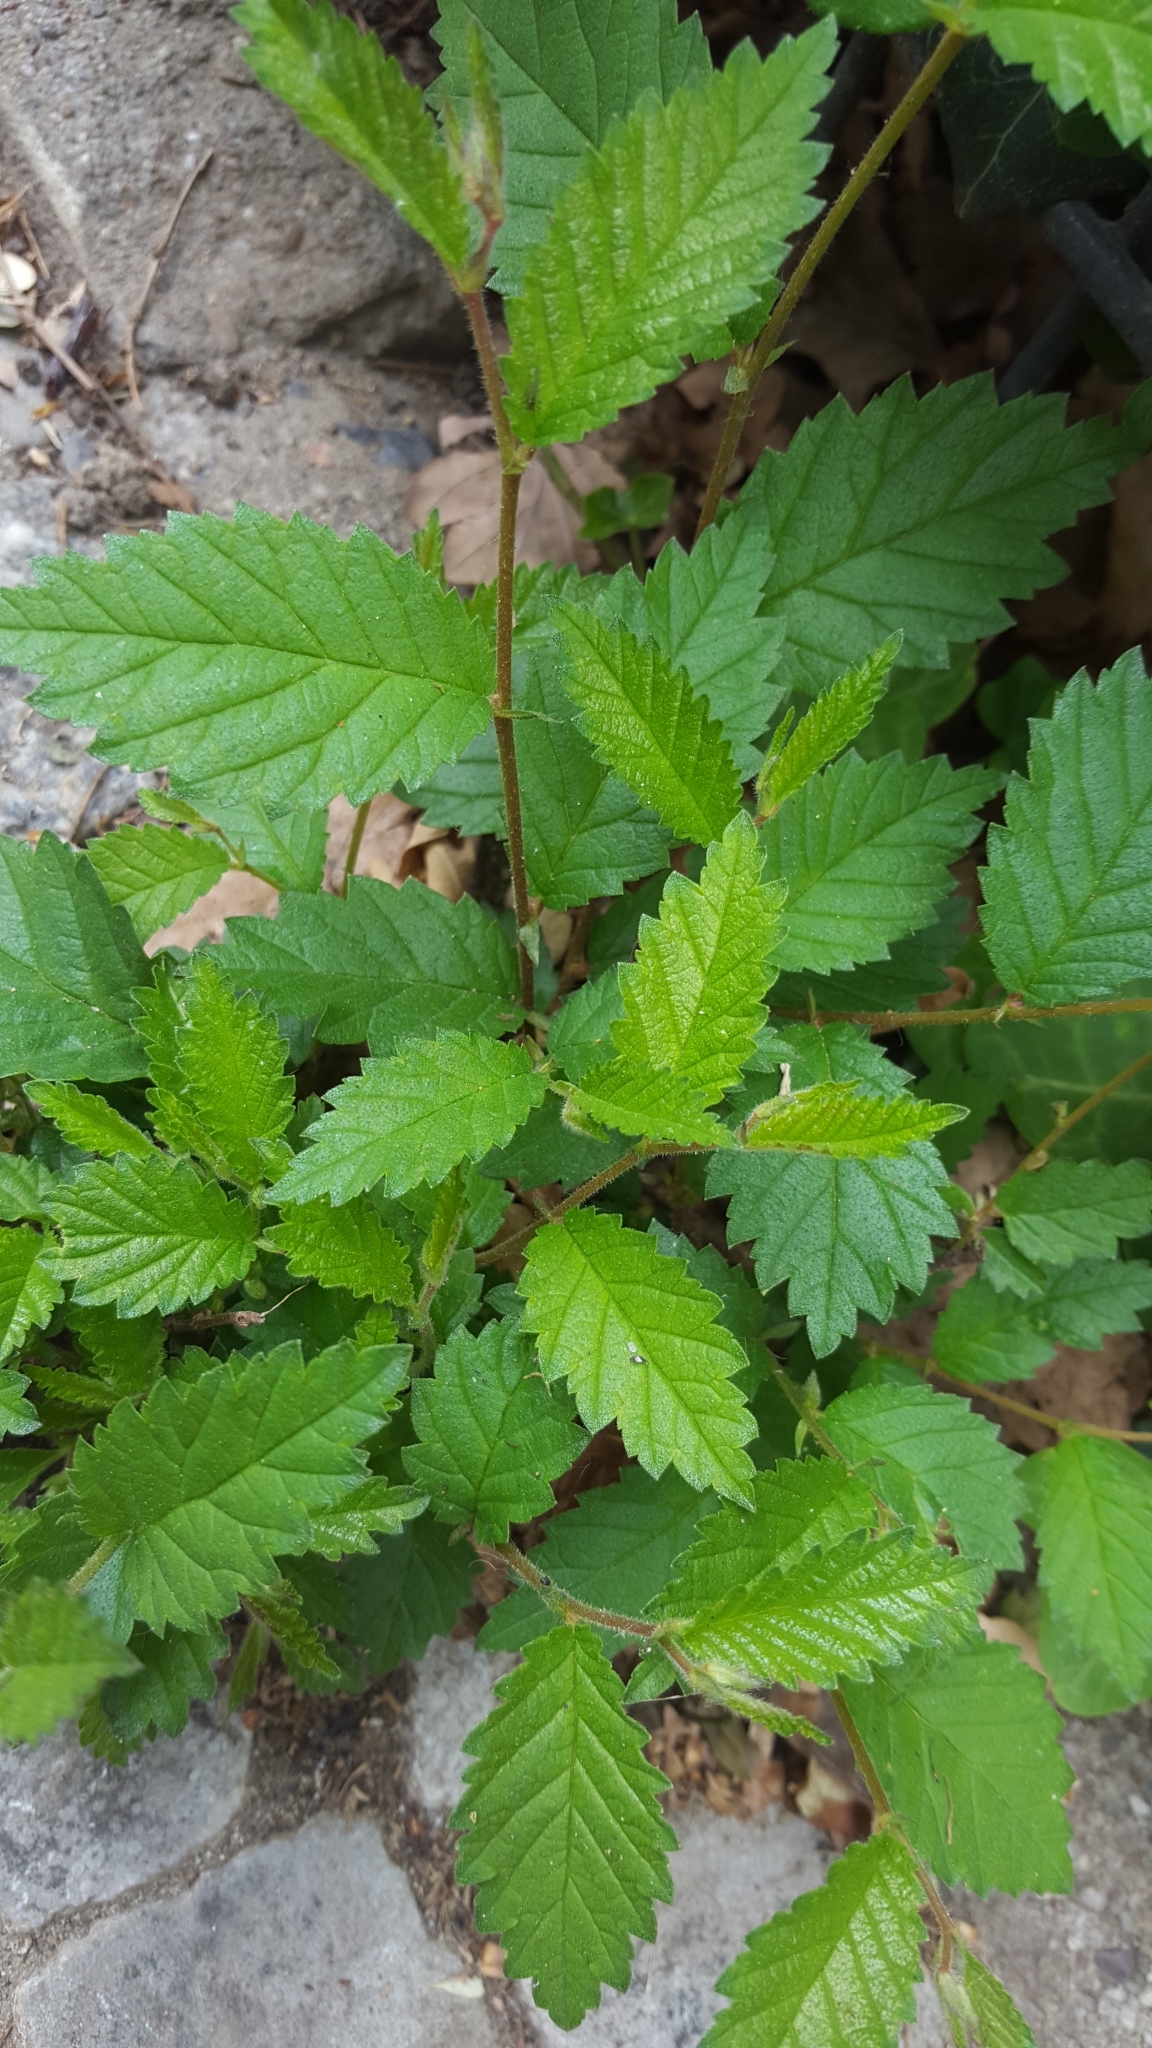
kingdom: Plantae
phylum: Tracheophyta
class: Magnoliopsida
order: Rosales
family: Ulmaceae
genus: Ulmus
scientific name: Ulmus minor
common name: Small-leaved elm
